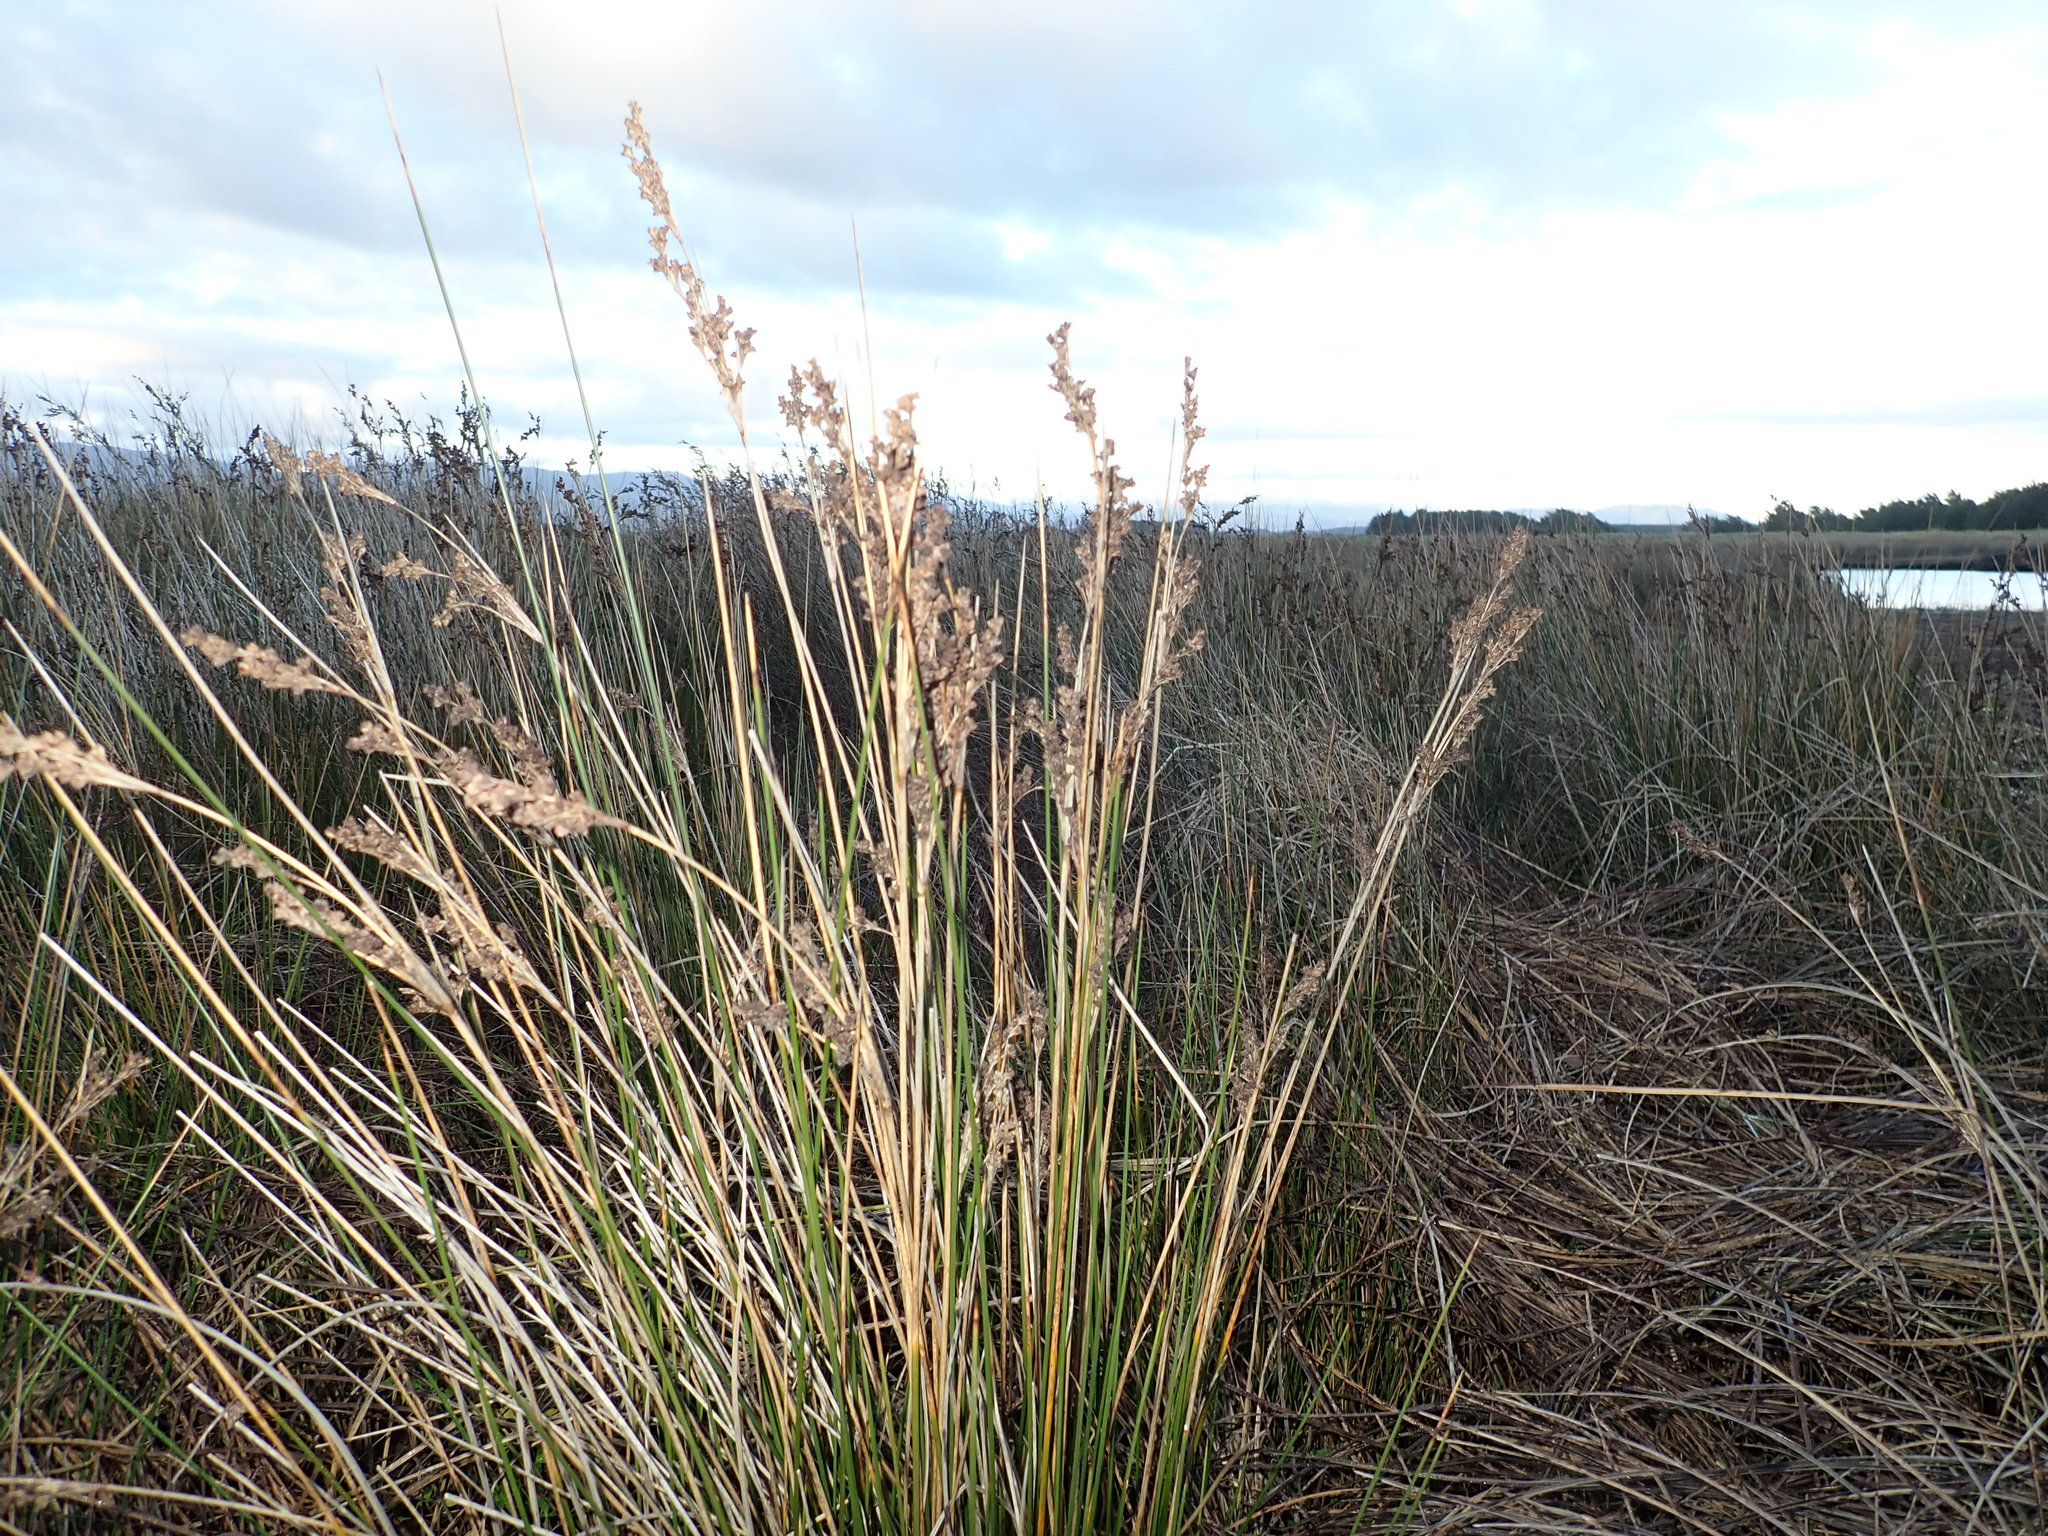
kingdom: Plantae
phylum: Tracheophyta
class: Liliopsida
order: Poales
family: Juncaceae
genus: Juncus
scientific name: Juncus kraussii
